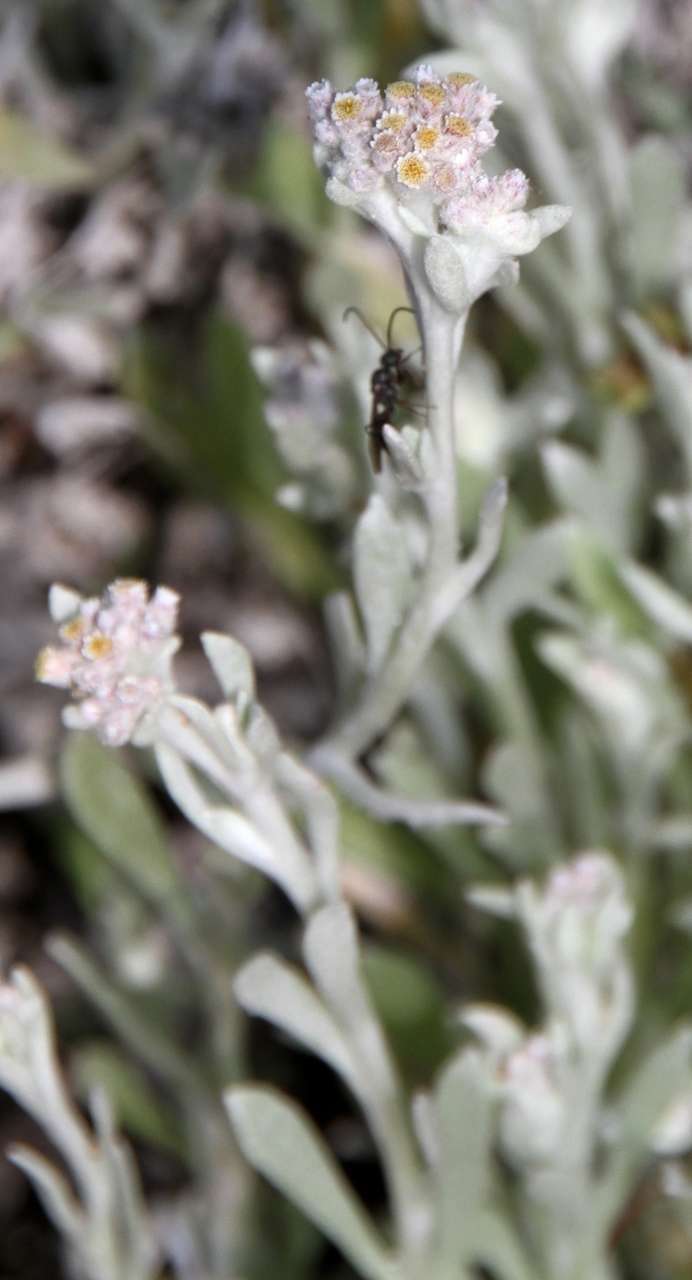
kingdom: Plantae
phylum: Tracheophyta
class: Magnoliopsida
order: Asterales
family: Asteraceae
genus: Vellereophyton
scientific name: Vellereophyton dealbatum
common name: White-cudweed
